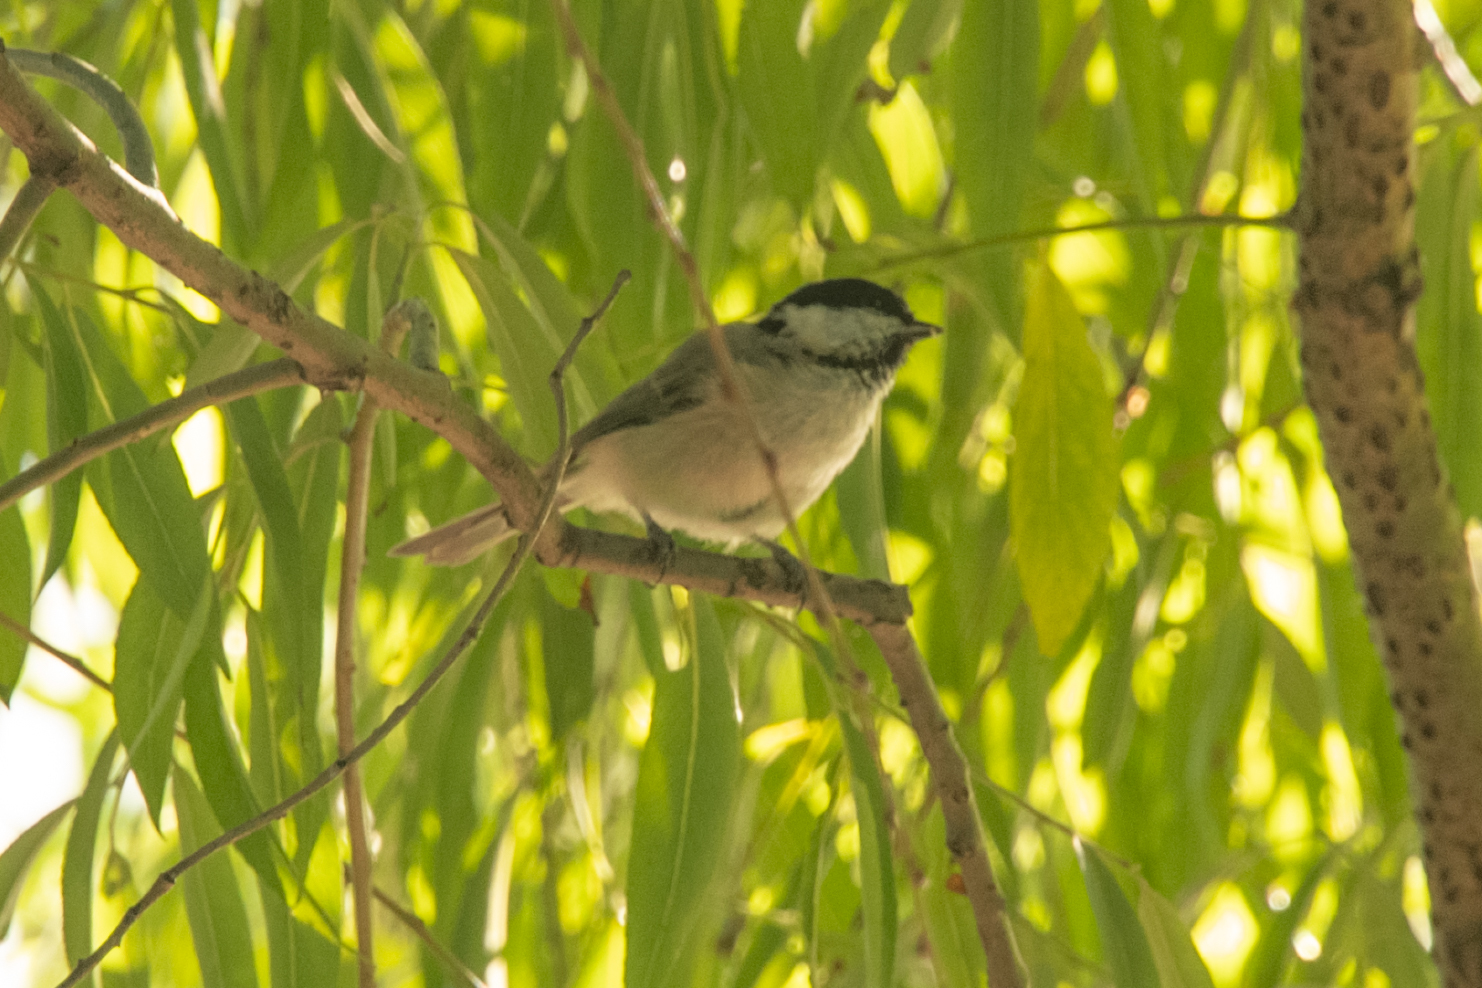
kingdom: Animalia
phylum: Chordata
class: Aves
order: Passeriformes
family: Paridae
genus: Parus
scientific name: Parus minor
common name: Japanese tit
